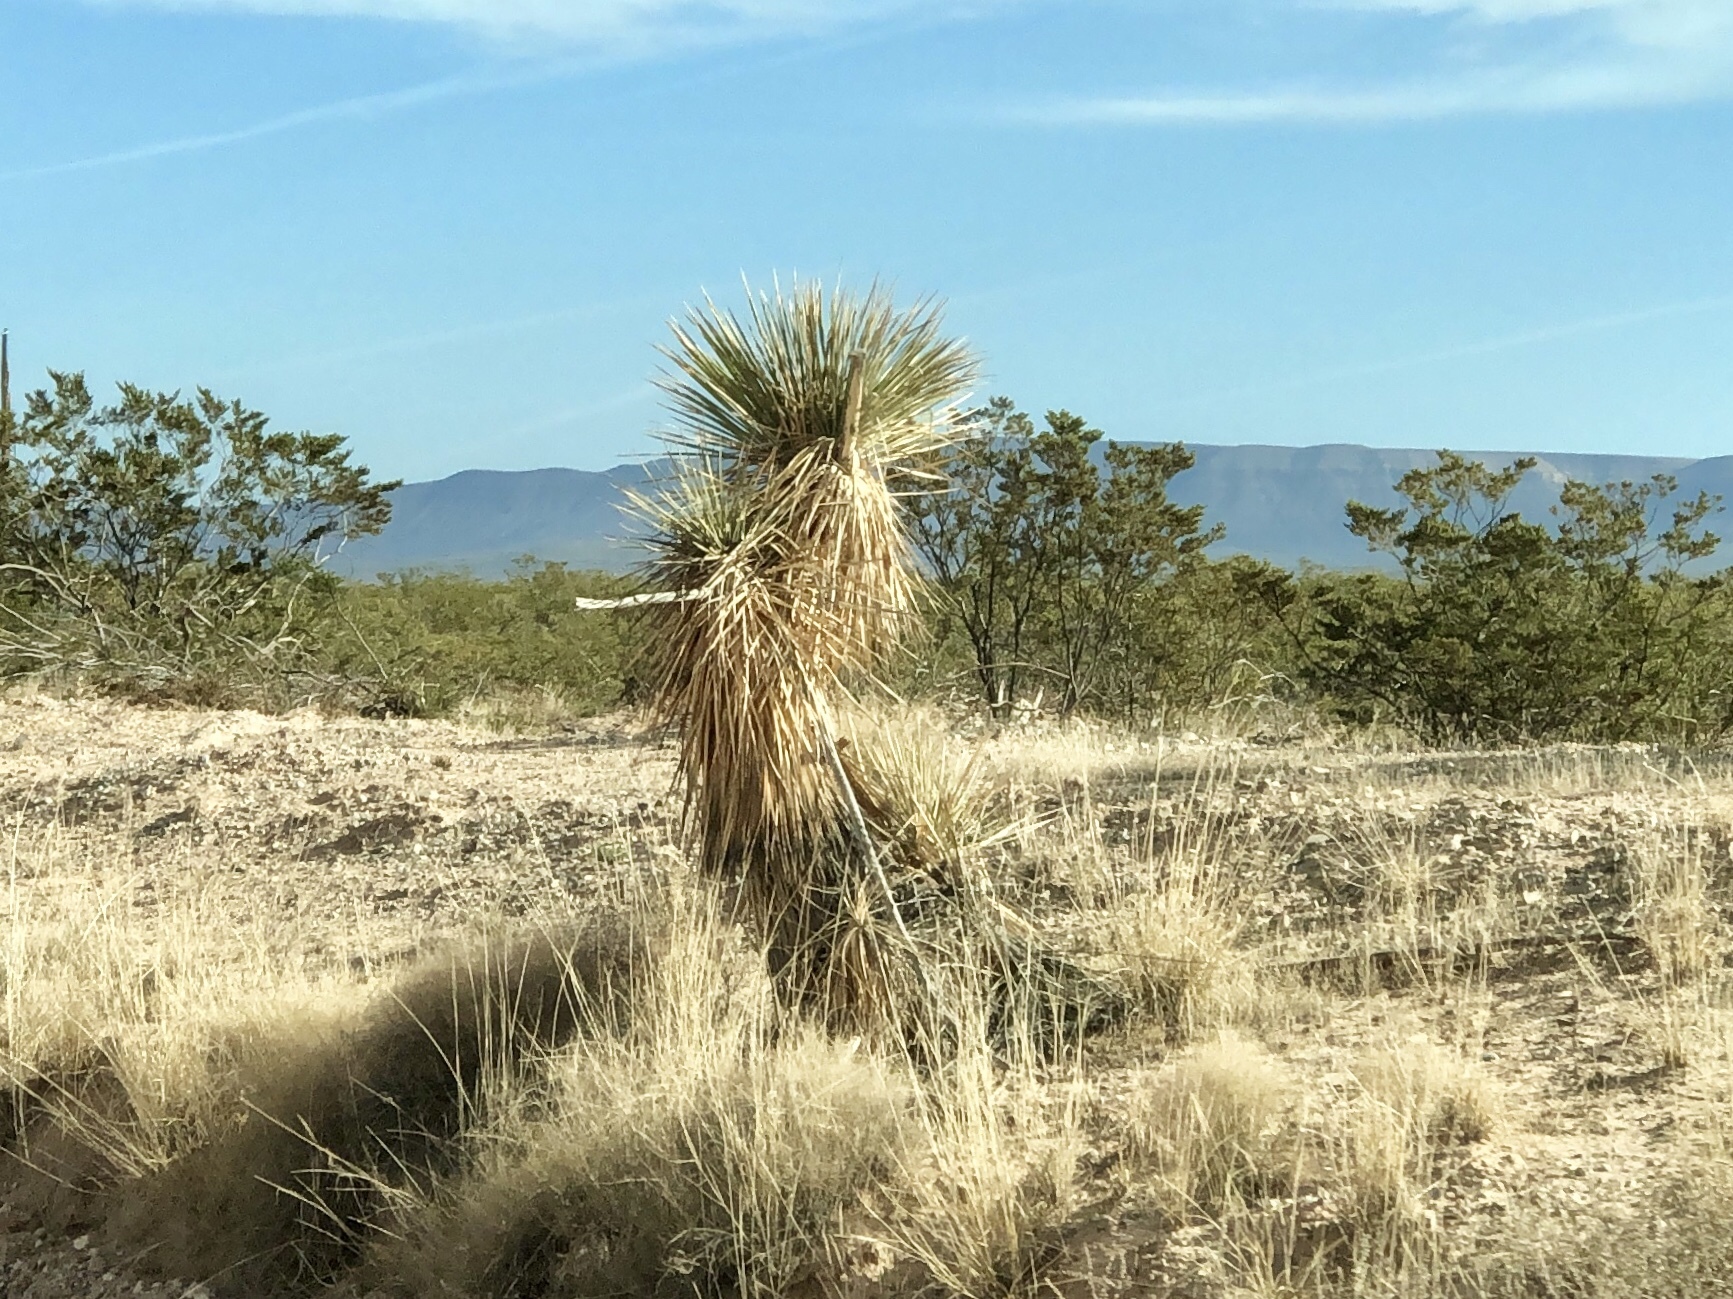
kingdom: Plantae
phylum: Tracheophyta
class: Liliopsida
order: Asparagales
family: Asparagaceae
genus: Yucca
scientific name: Yucca elata
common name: Palmella
